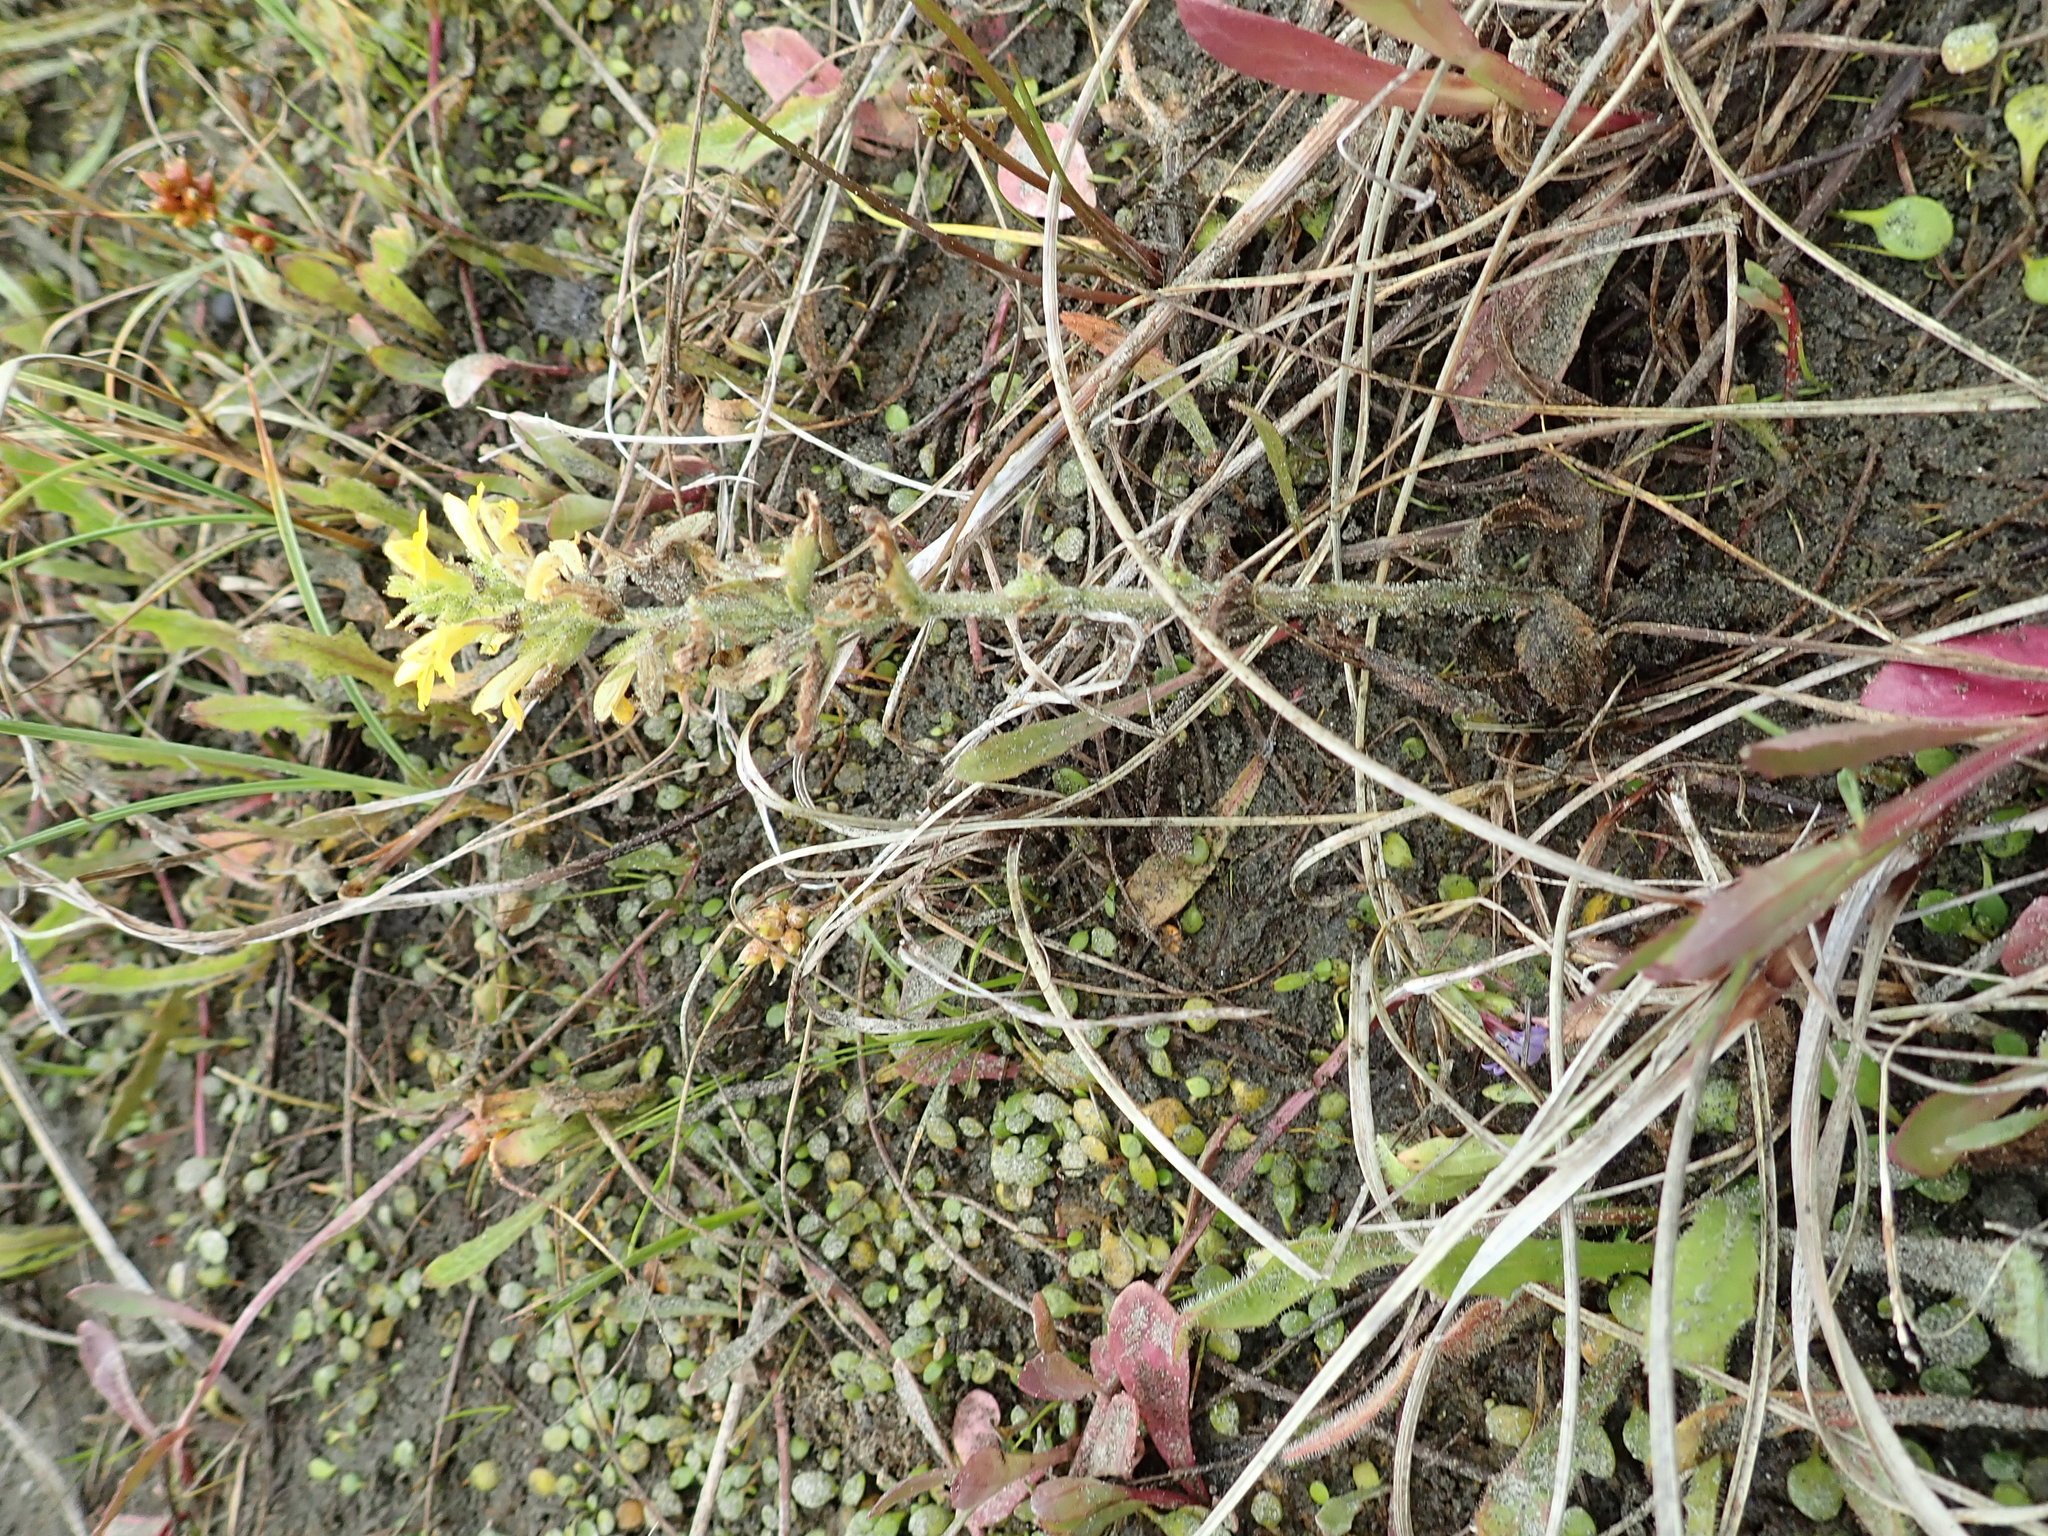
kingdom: Plantae
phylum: Tracheophyta
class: Magnoliopsida
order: Lamiales
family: Orobanchaceae
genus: Bellardia
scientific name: Bellardia viscosa
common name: Sticky parentucellia
